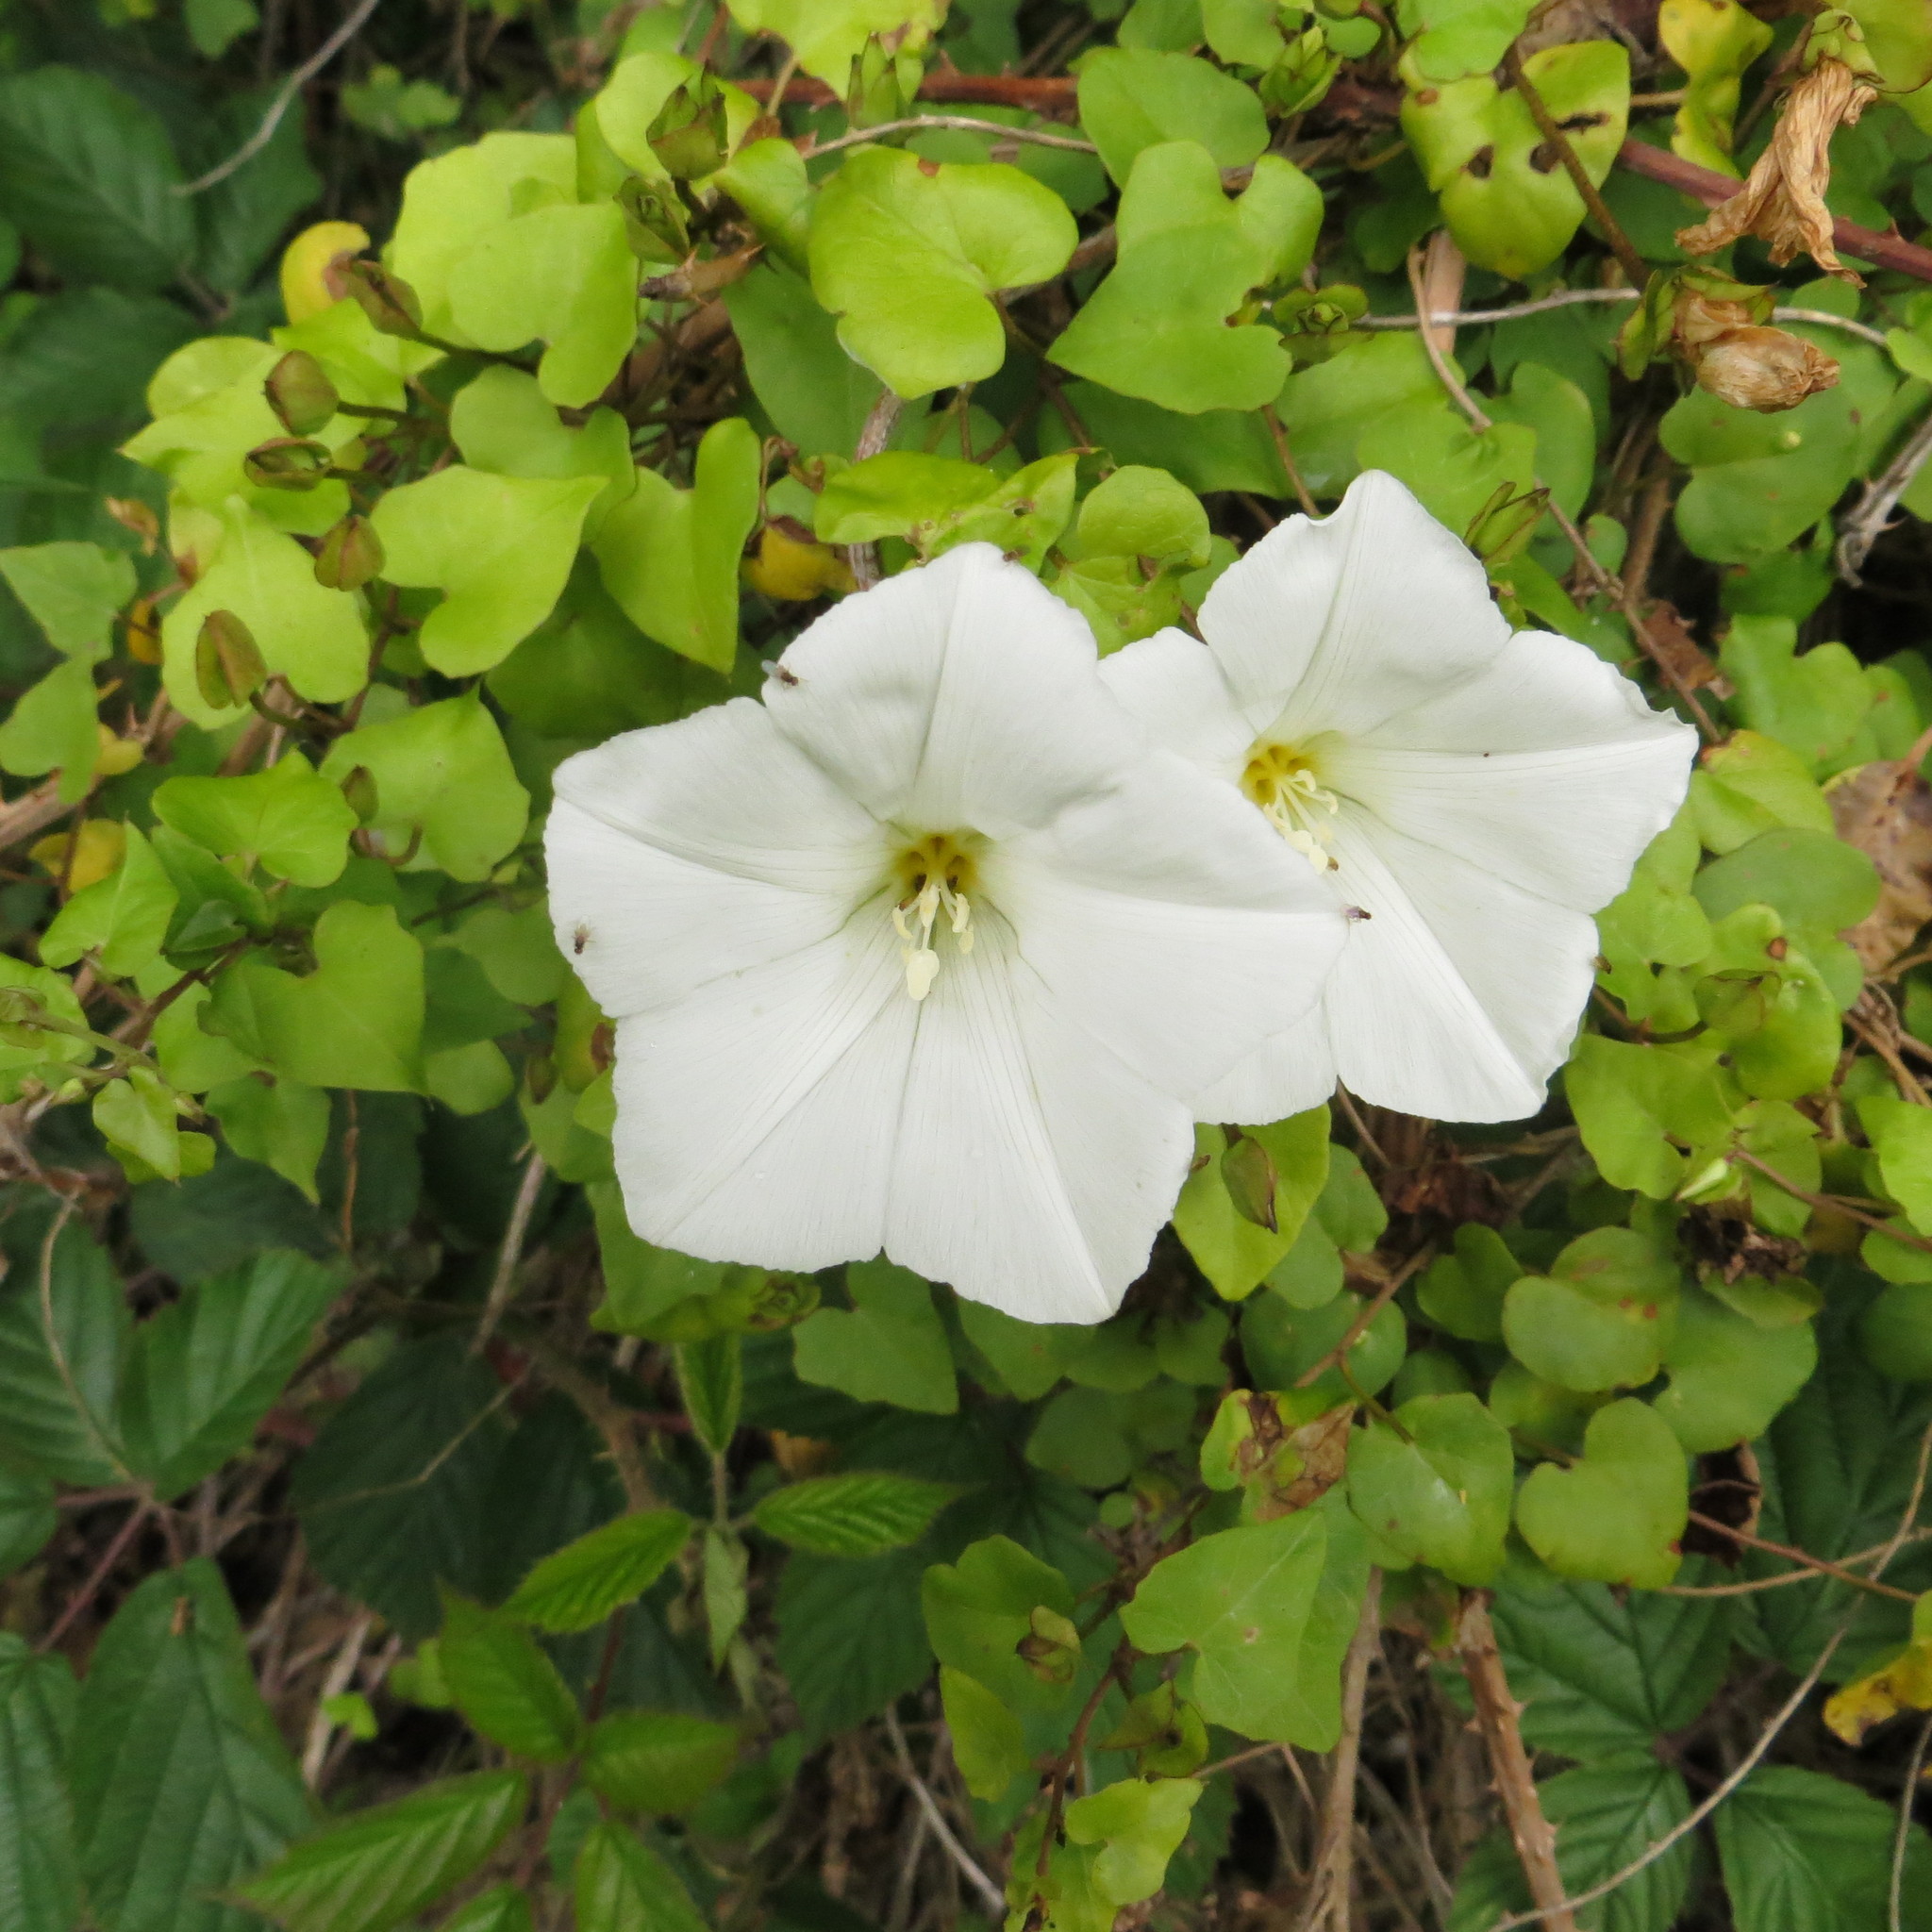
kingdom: Plantae
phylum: Tracheophyta
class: Magnoliopsida
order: Solanales
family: Convolvulaceae
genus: Calystegia
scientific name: Calystegia tuguriorum
